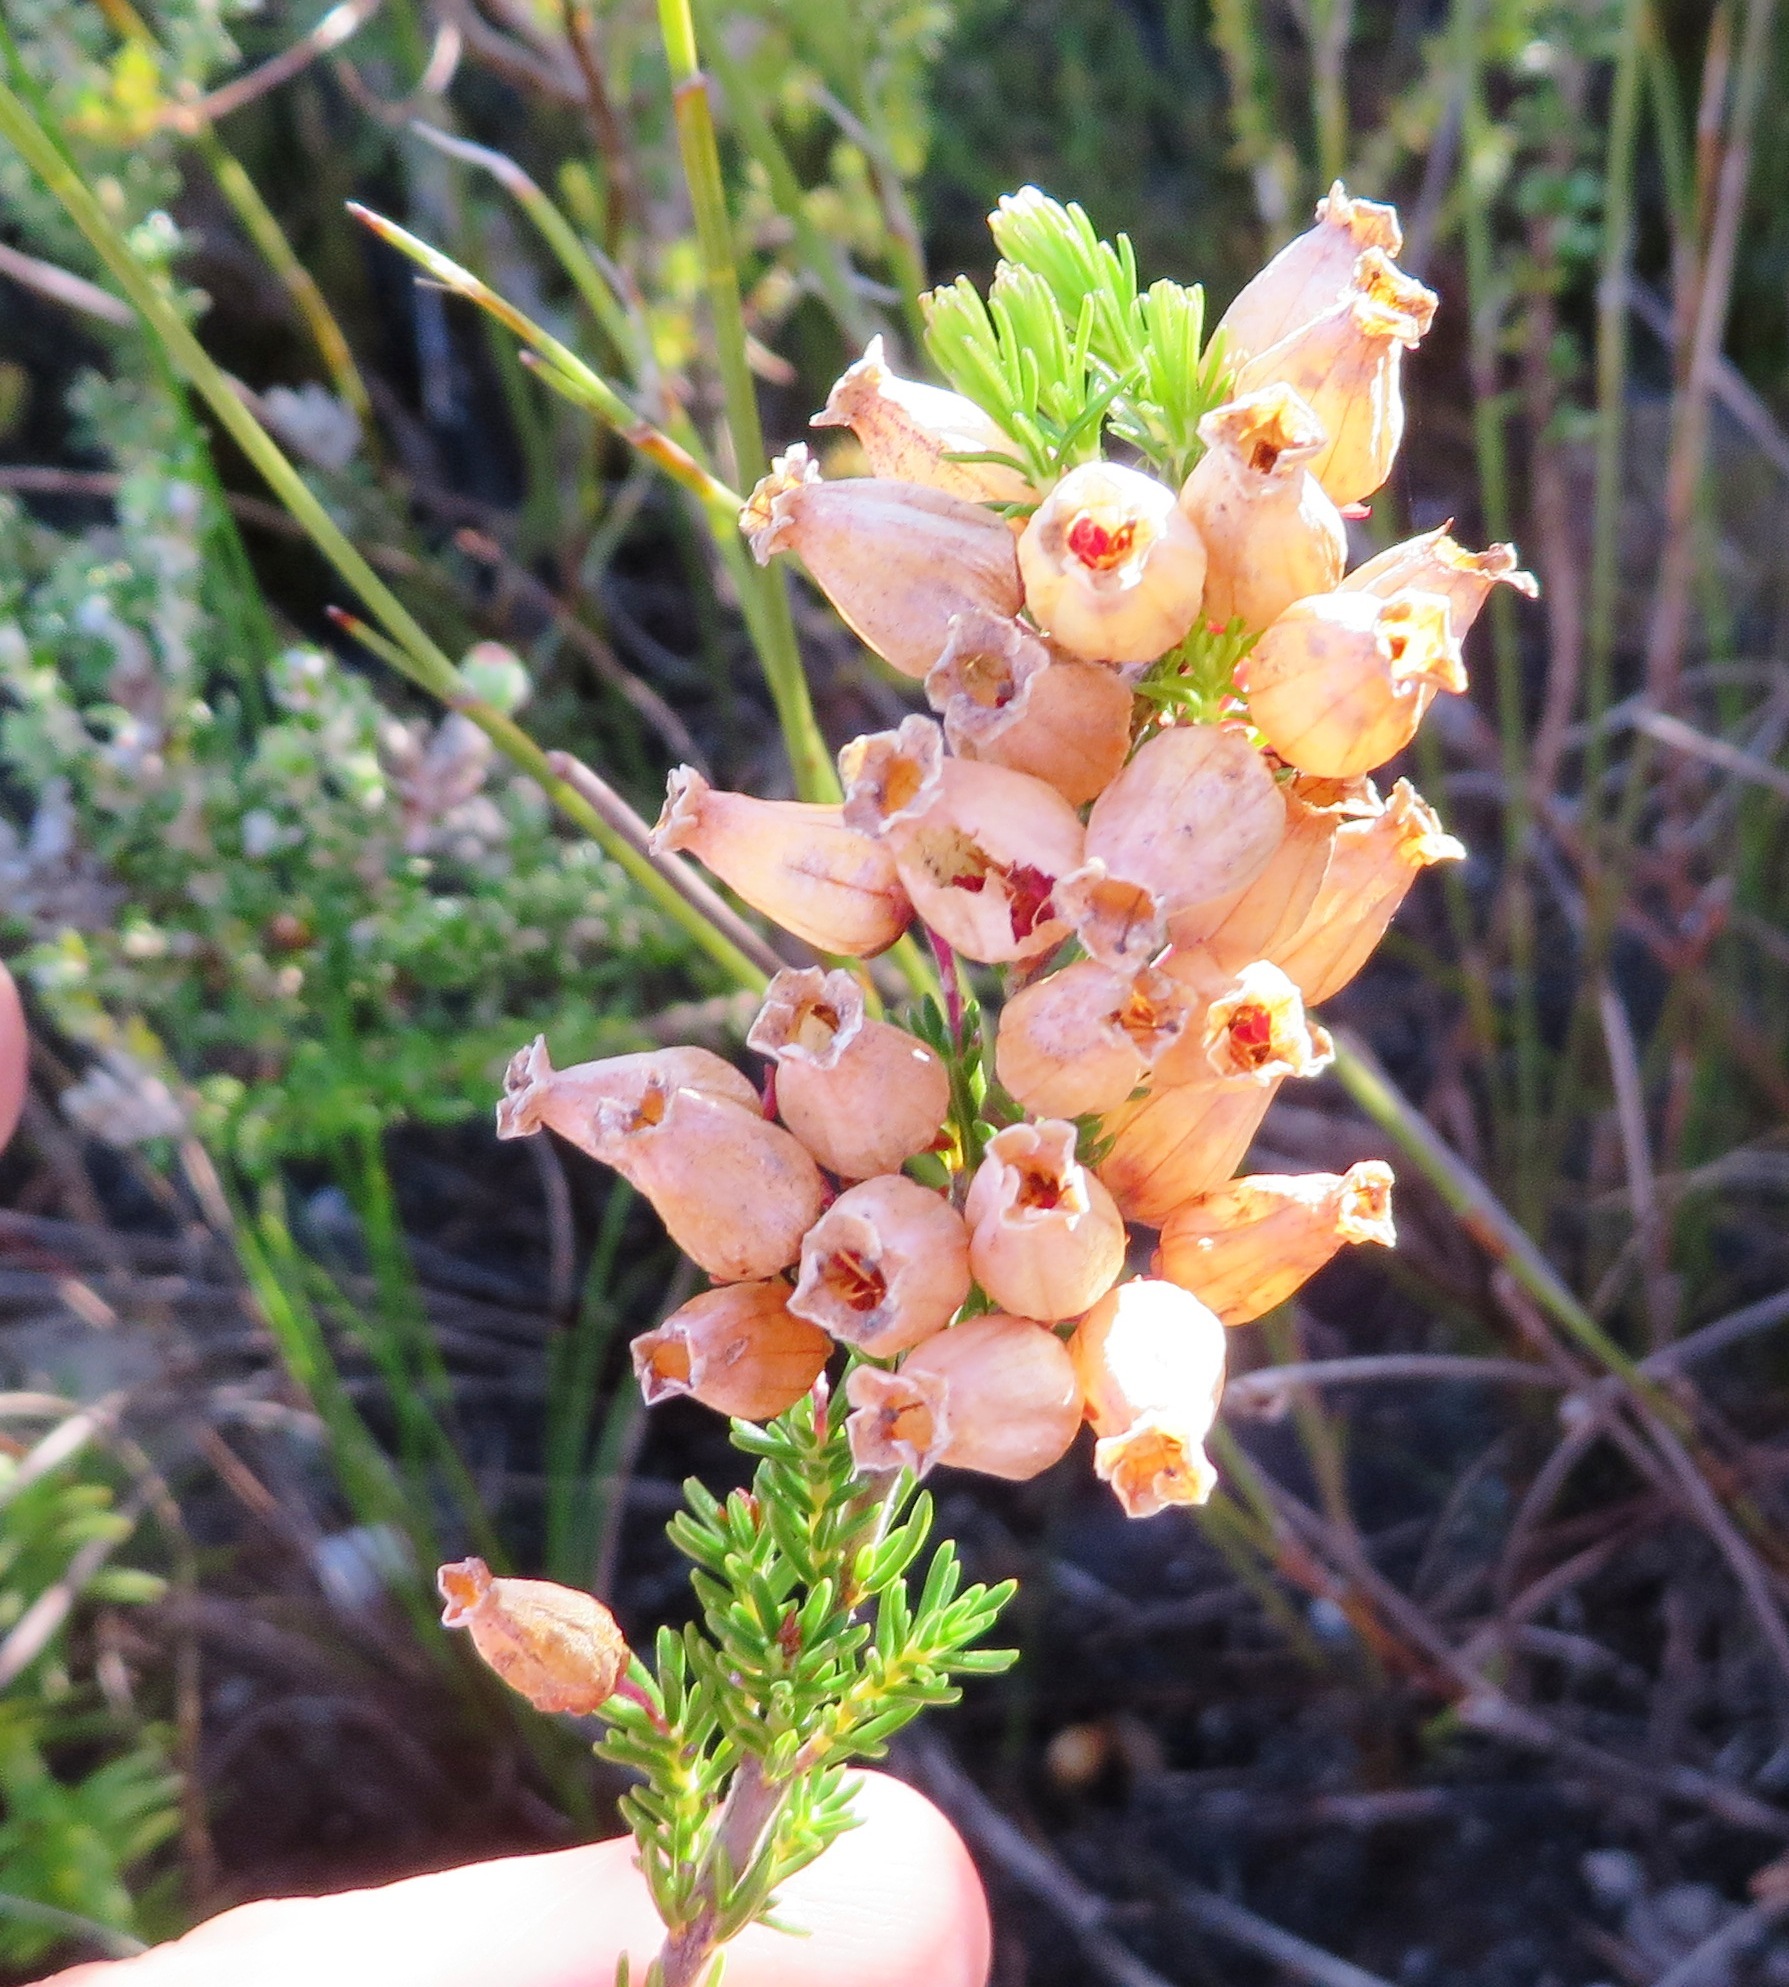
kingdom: Plantae
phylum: Tracheophyta
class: Magnoliopsida
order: Ericales
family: Ericaceae
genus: Erica
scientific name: Erica tenella
